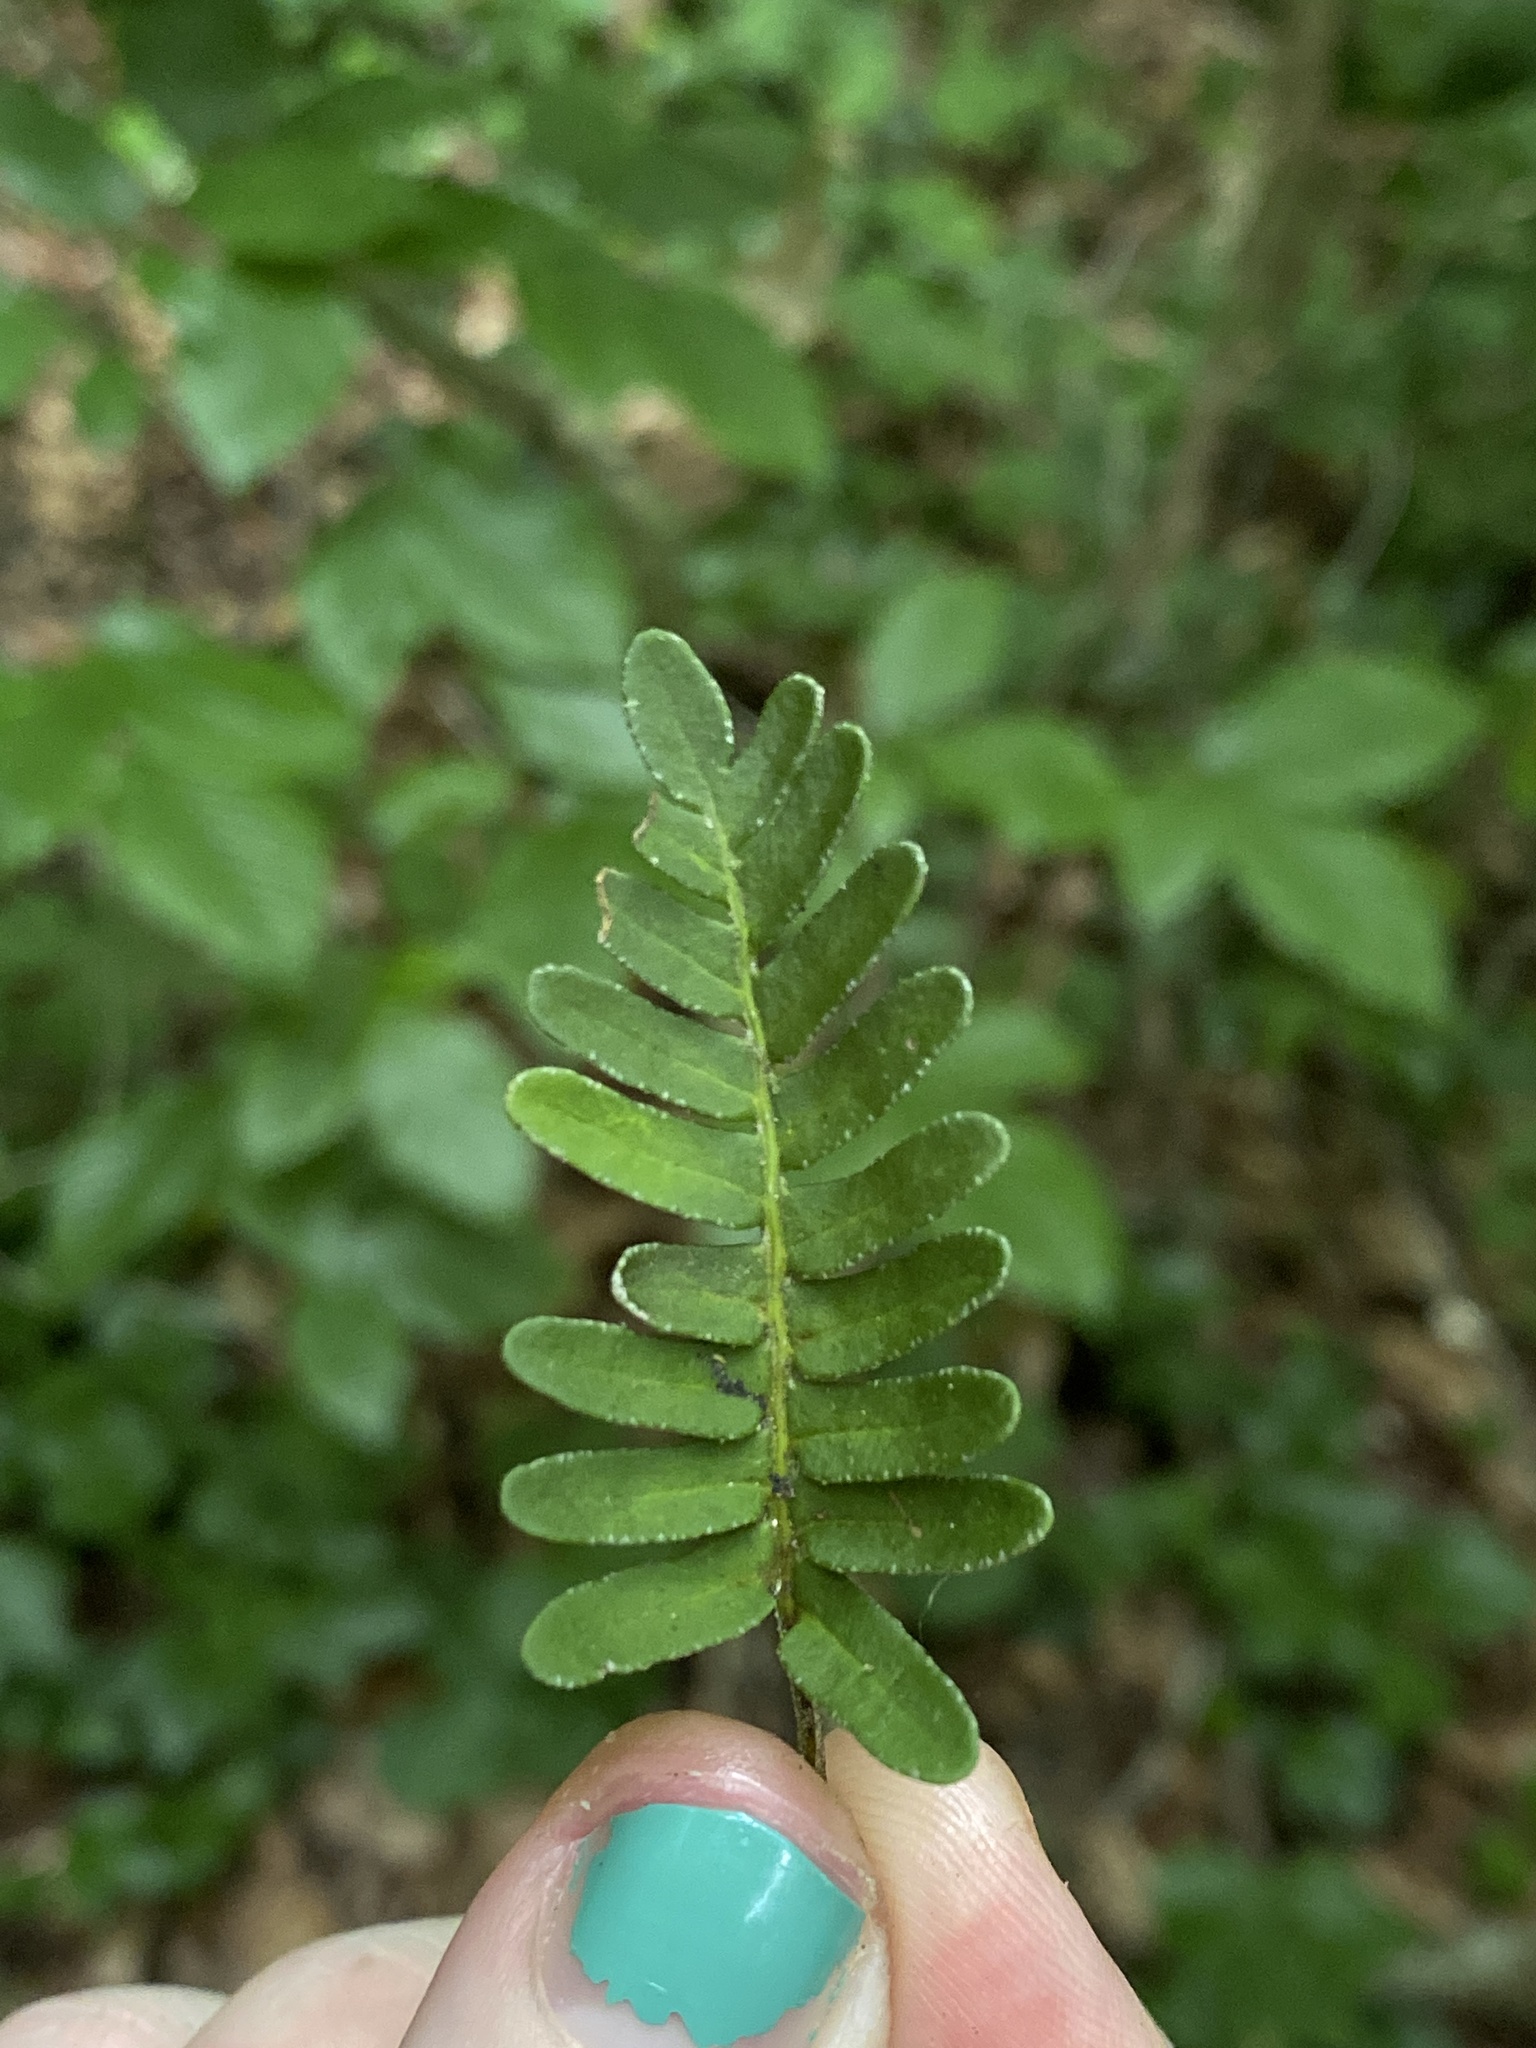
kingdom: Plantae
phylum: Tracheophyta
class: Polypodiopsida
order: Polypodiales
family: Polypodiaceae
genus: Pleopeltis
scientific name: Pleopeltis michauxiana
